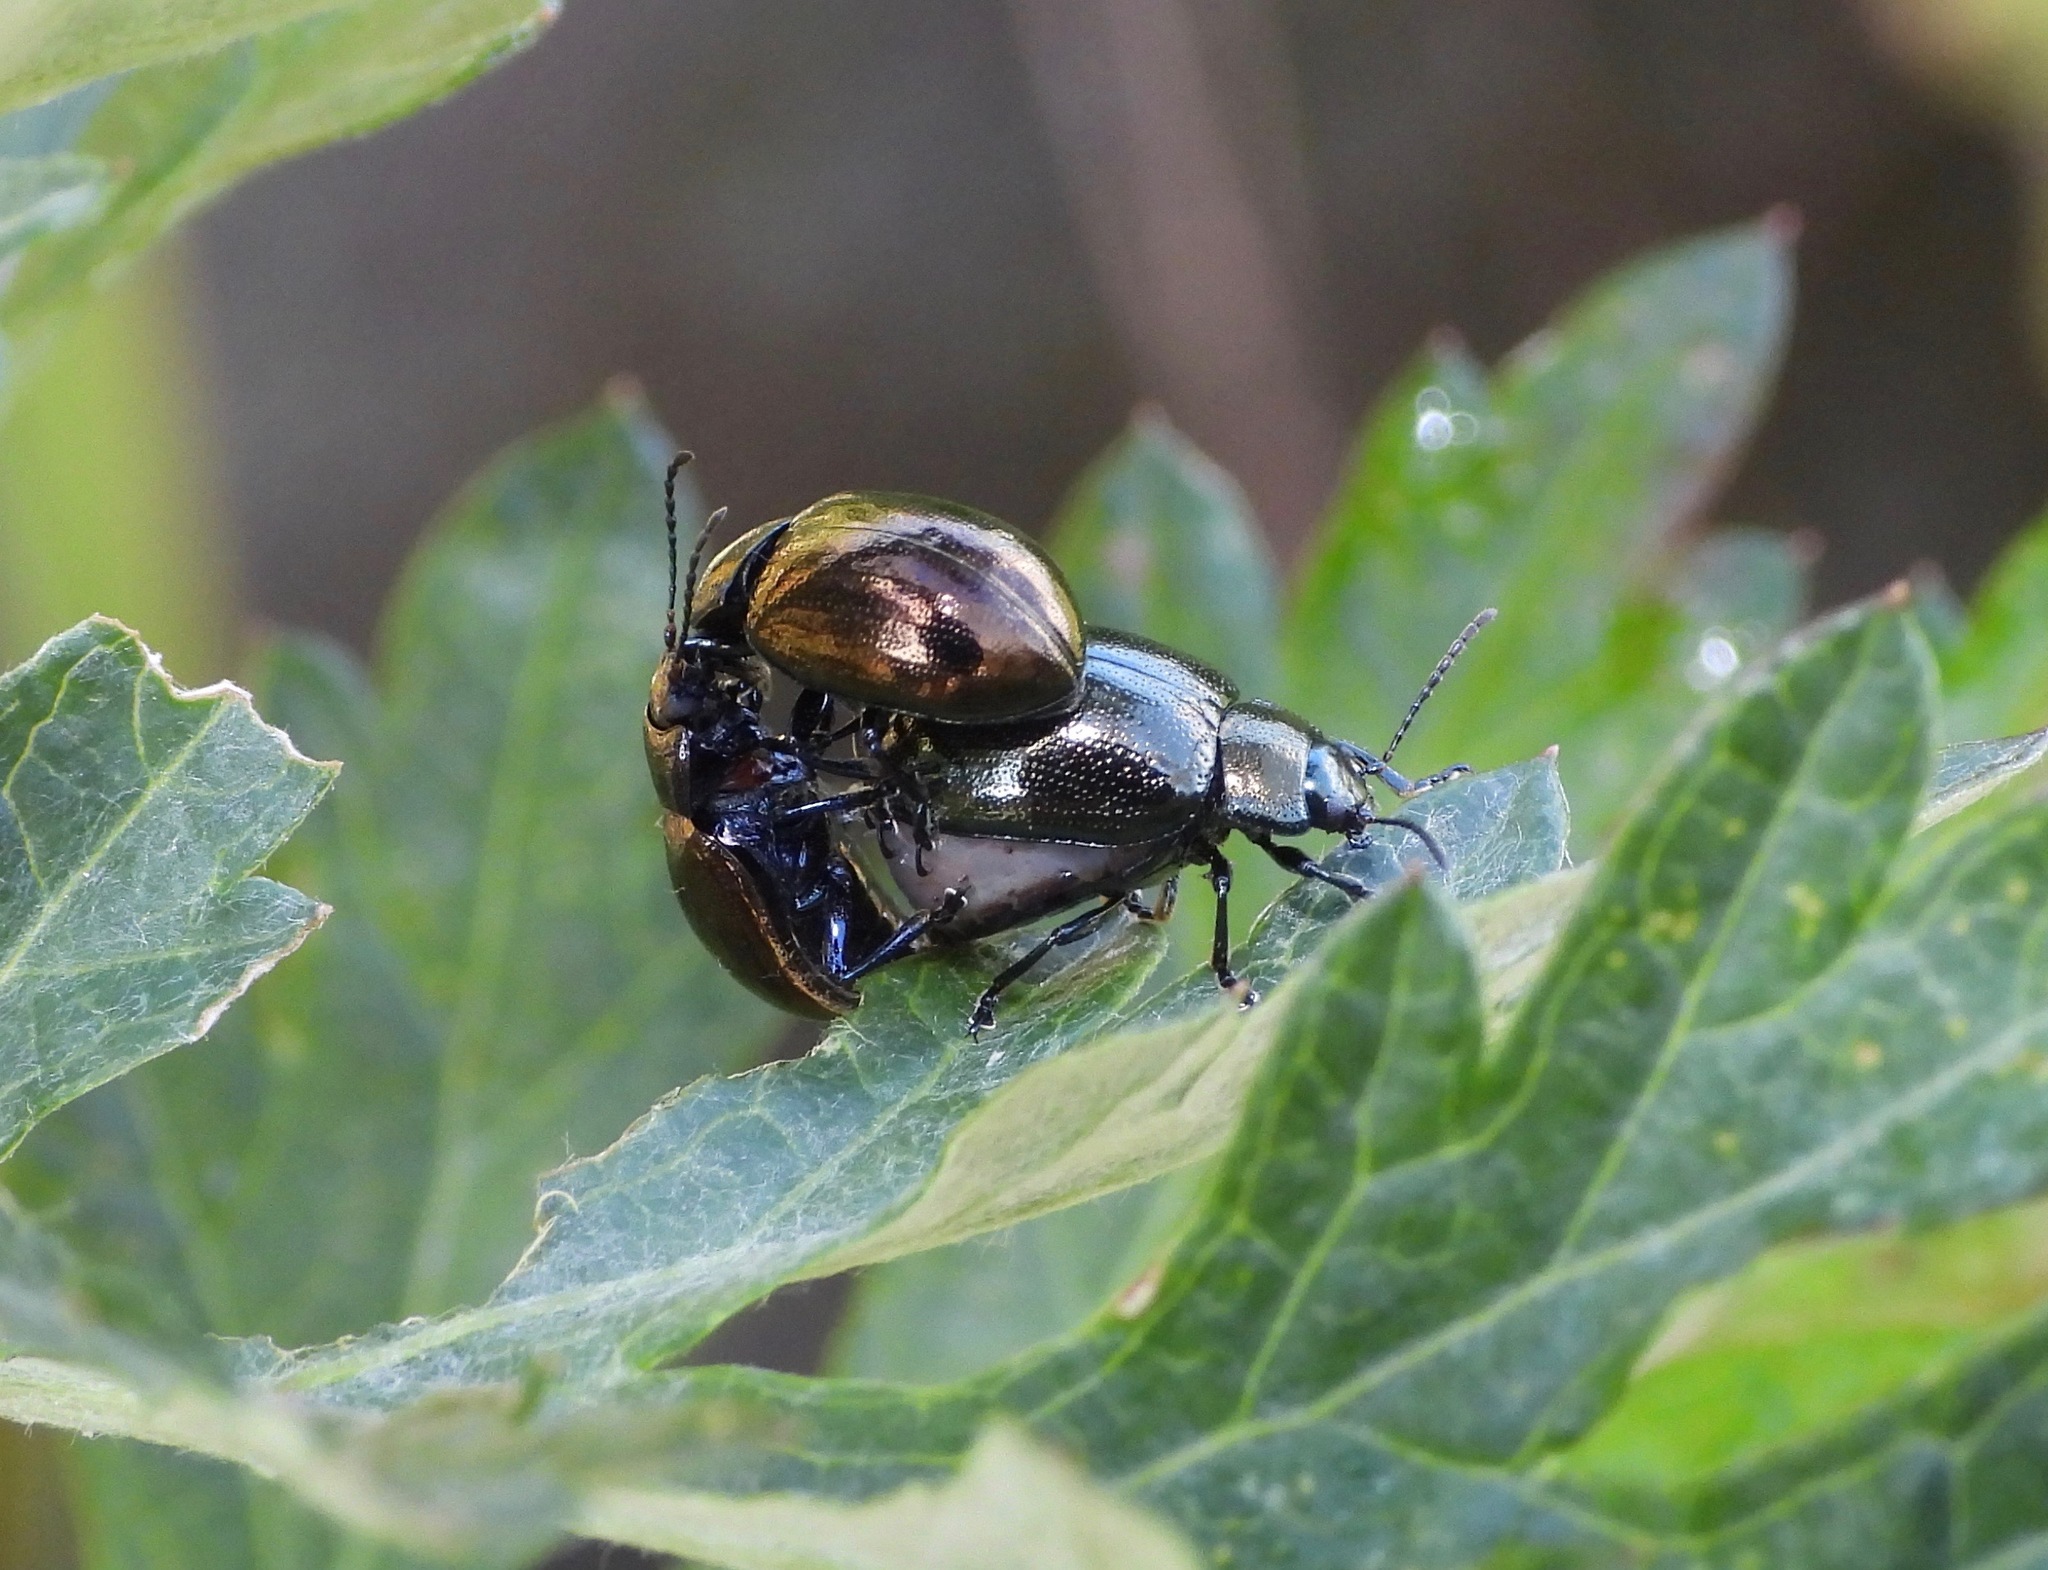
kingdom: Animalia
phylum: Arthropoda
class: Insecta
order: Coleoptera
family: Chrysomelidae
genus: Chrysolina
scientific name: Chrysolina aurichalcea
